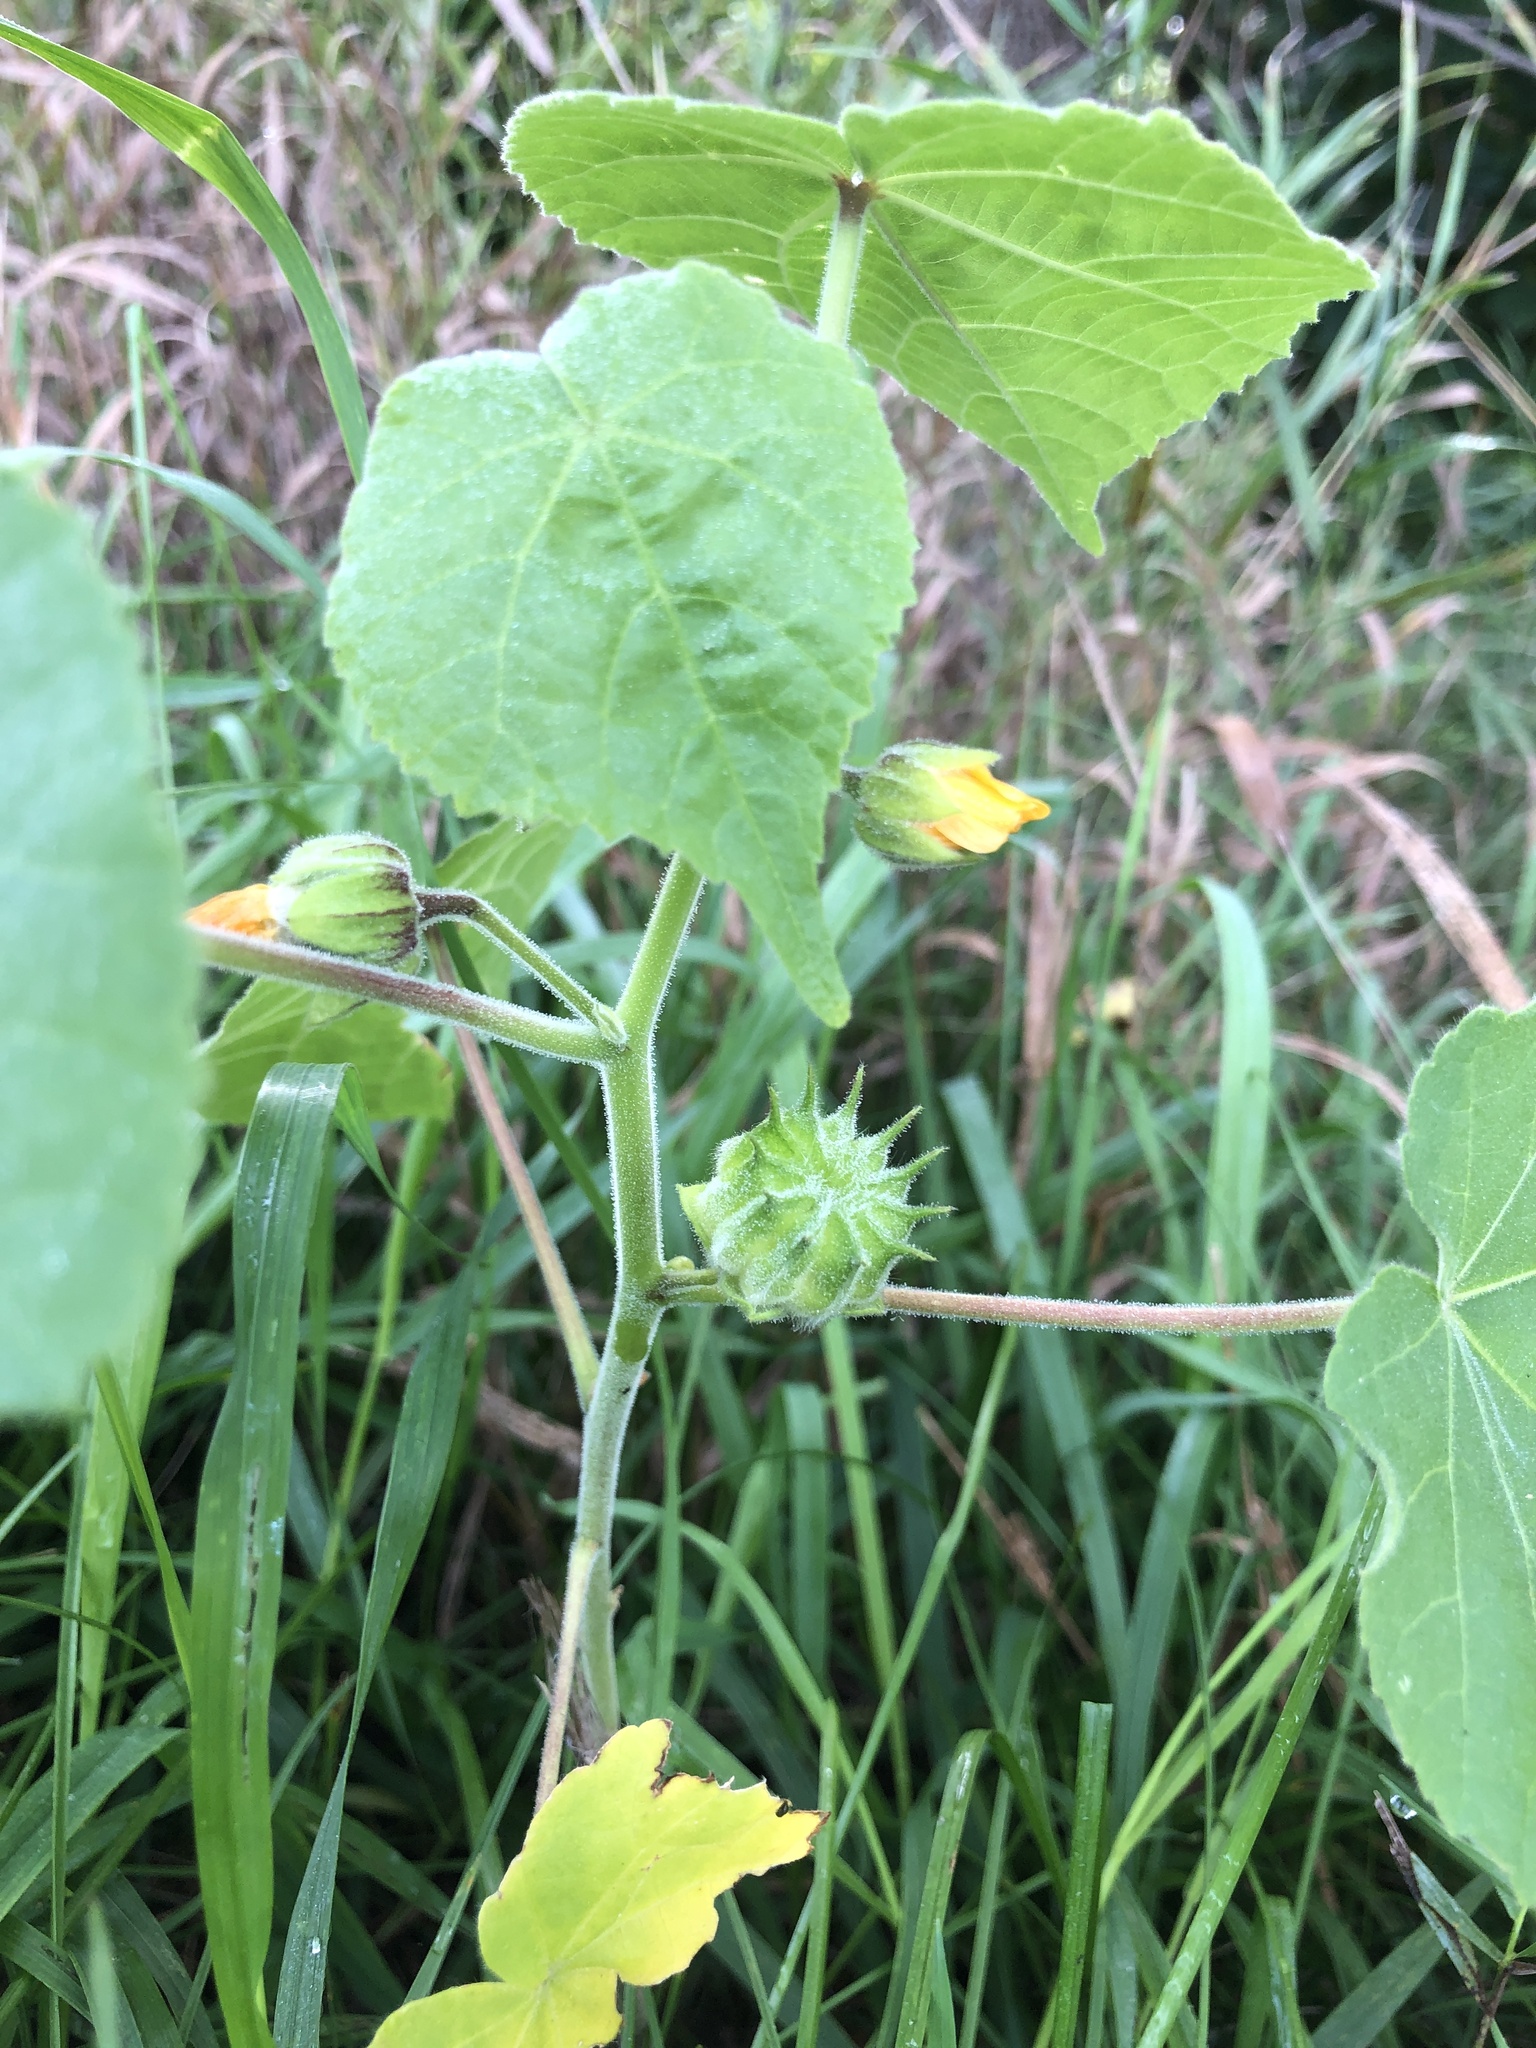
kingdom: Plantae
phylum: Tracheophyta
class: Magnoliopsida
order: Malvales
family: Malvaceae
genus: Abutilon
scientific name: Abutilon theophrasti
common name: Velvetleaf
